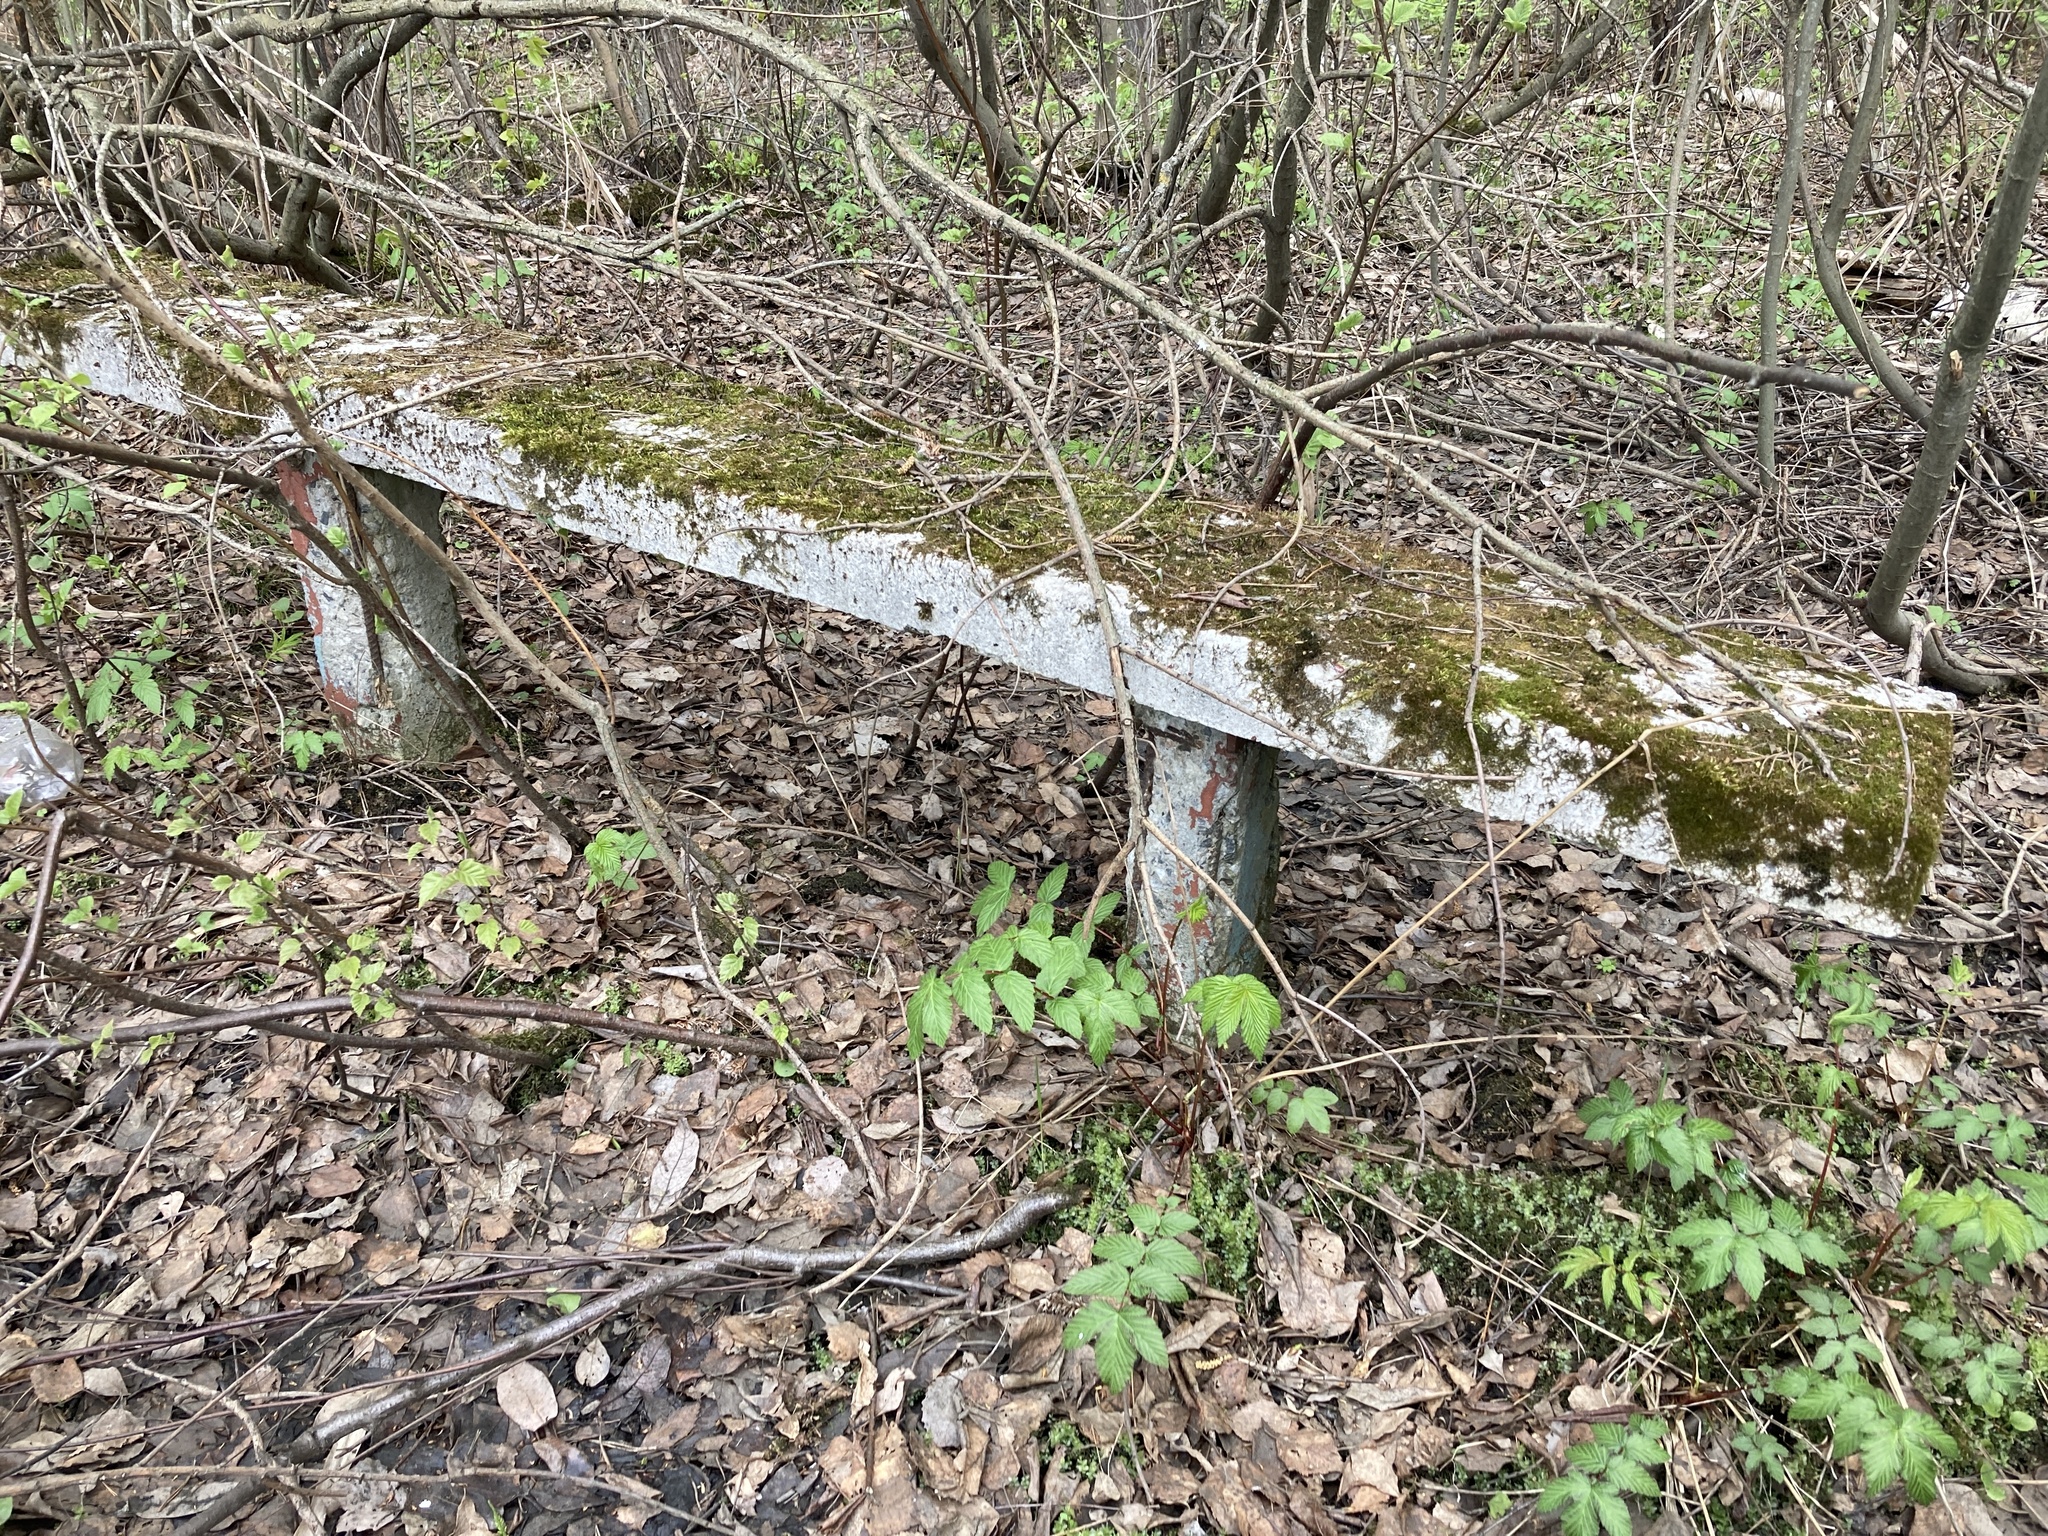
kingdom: Plantae
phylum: Tracheophyta
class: Magnoliopsida
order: Rosales
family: Rosaceae
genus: Filipendula
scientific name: Filipendula ulmaria
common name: Meadowsweet
